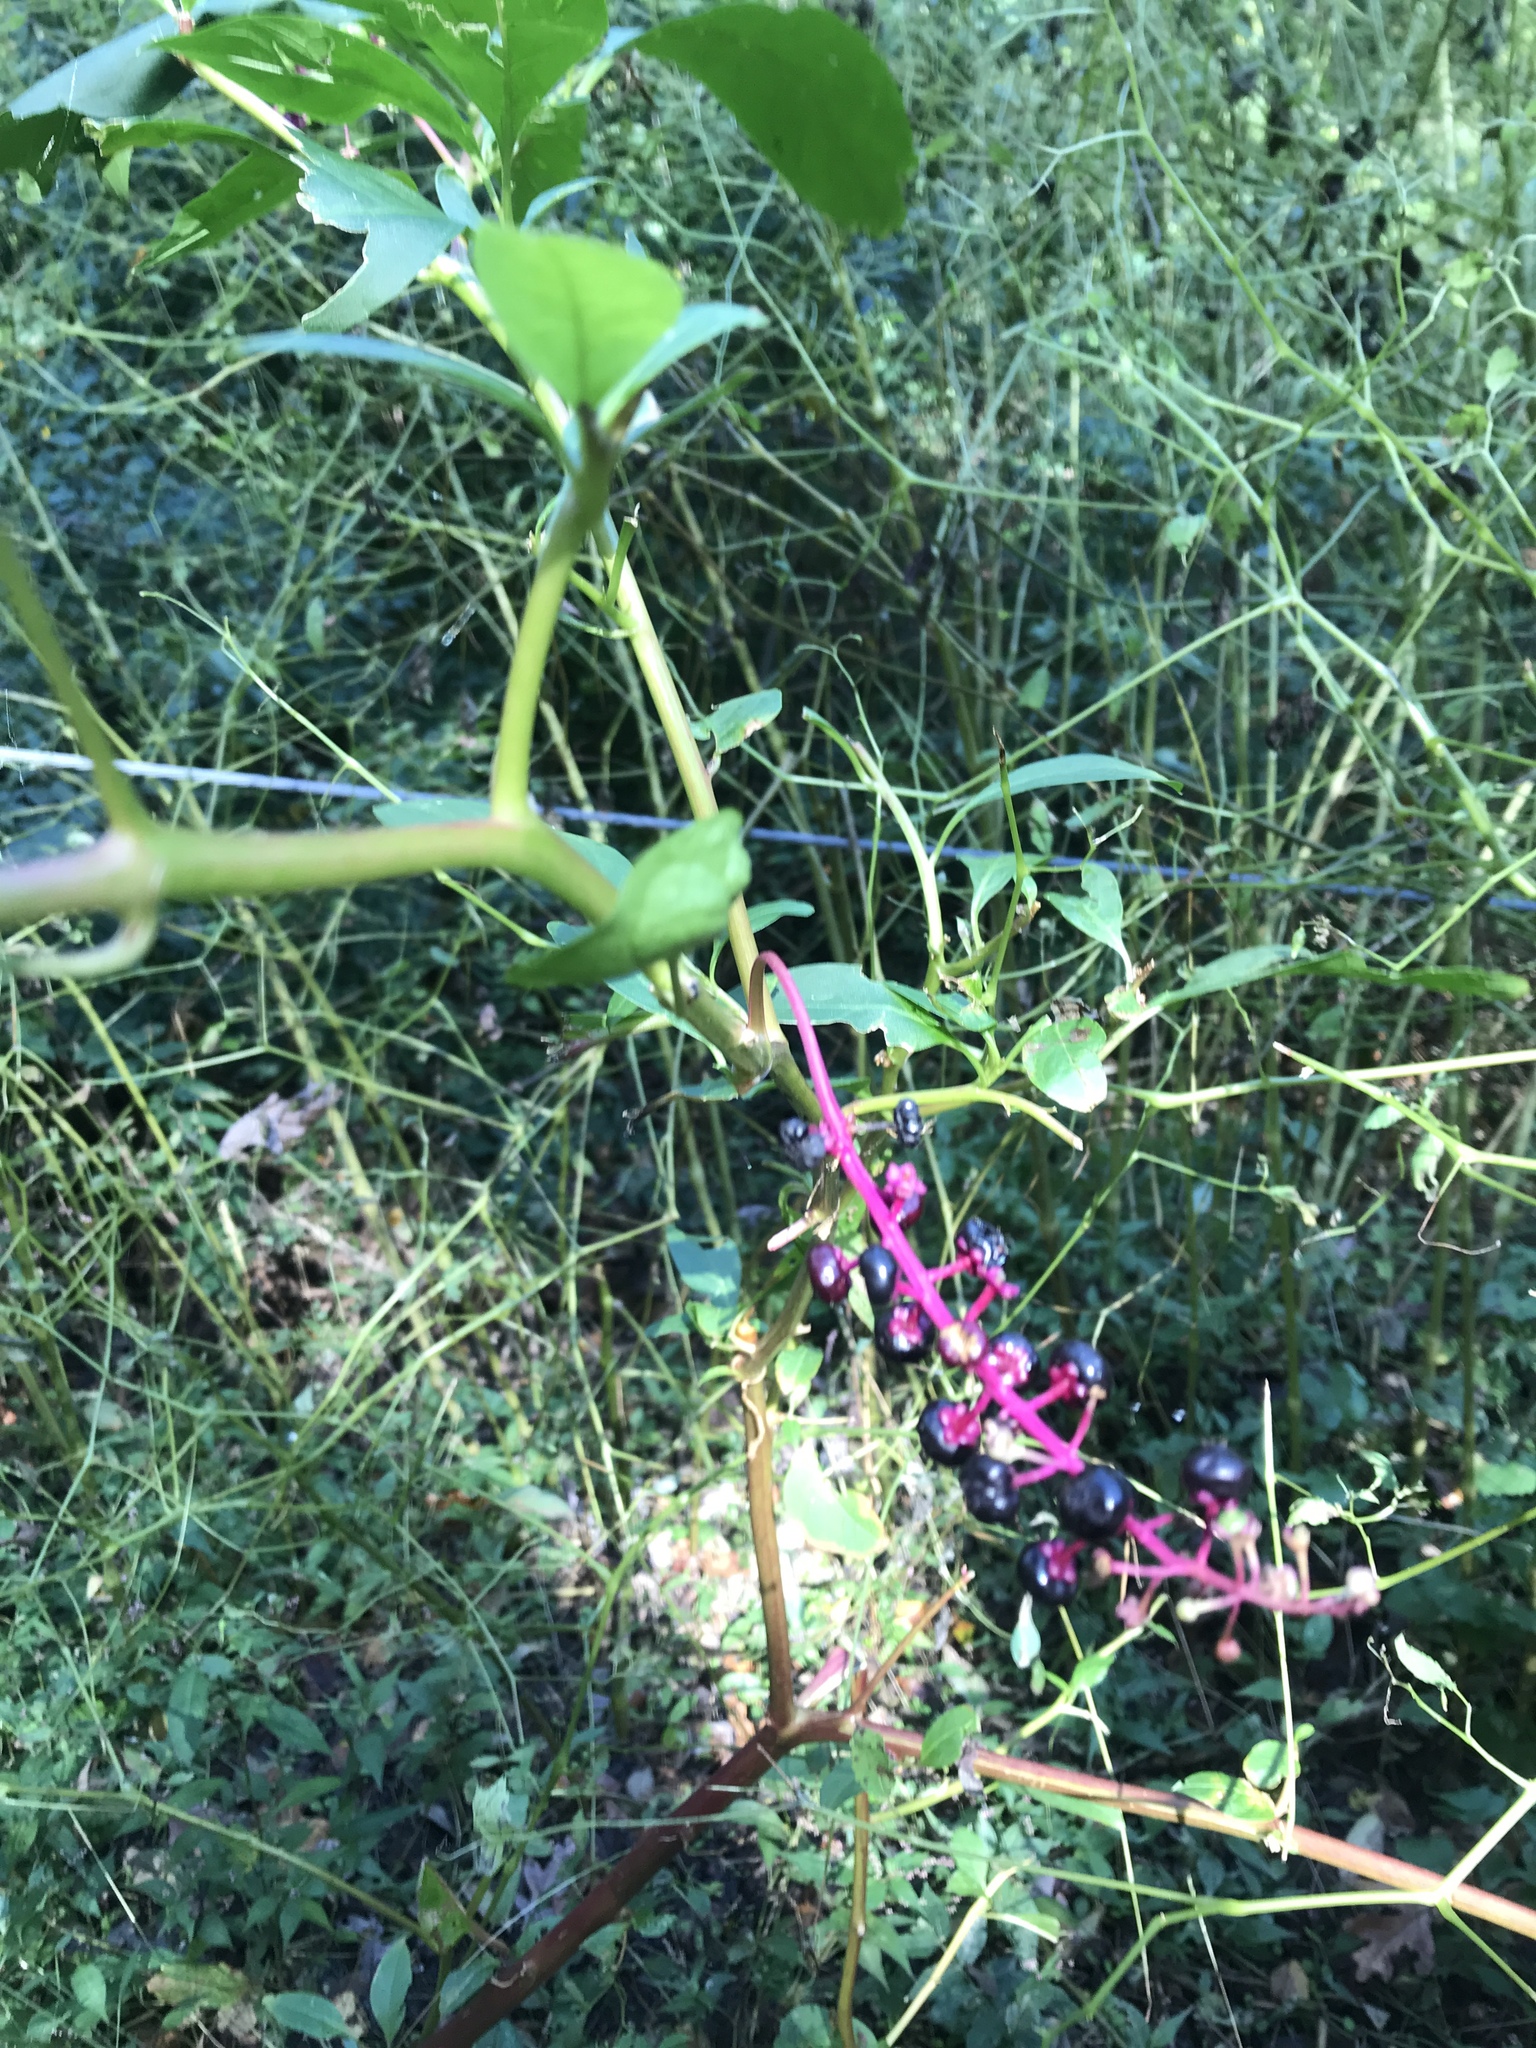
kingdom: Plantae
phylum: Tracheophyta
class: Magnoliopsida
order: Caryophyllales
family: Phytolaccaceae
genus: Phytolacca
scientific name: Phytolacca americana
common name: American pokeweed
